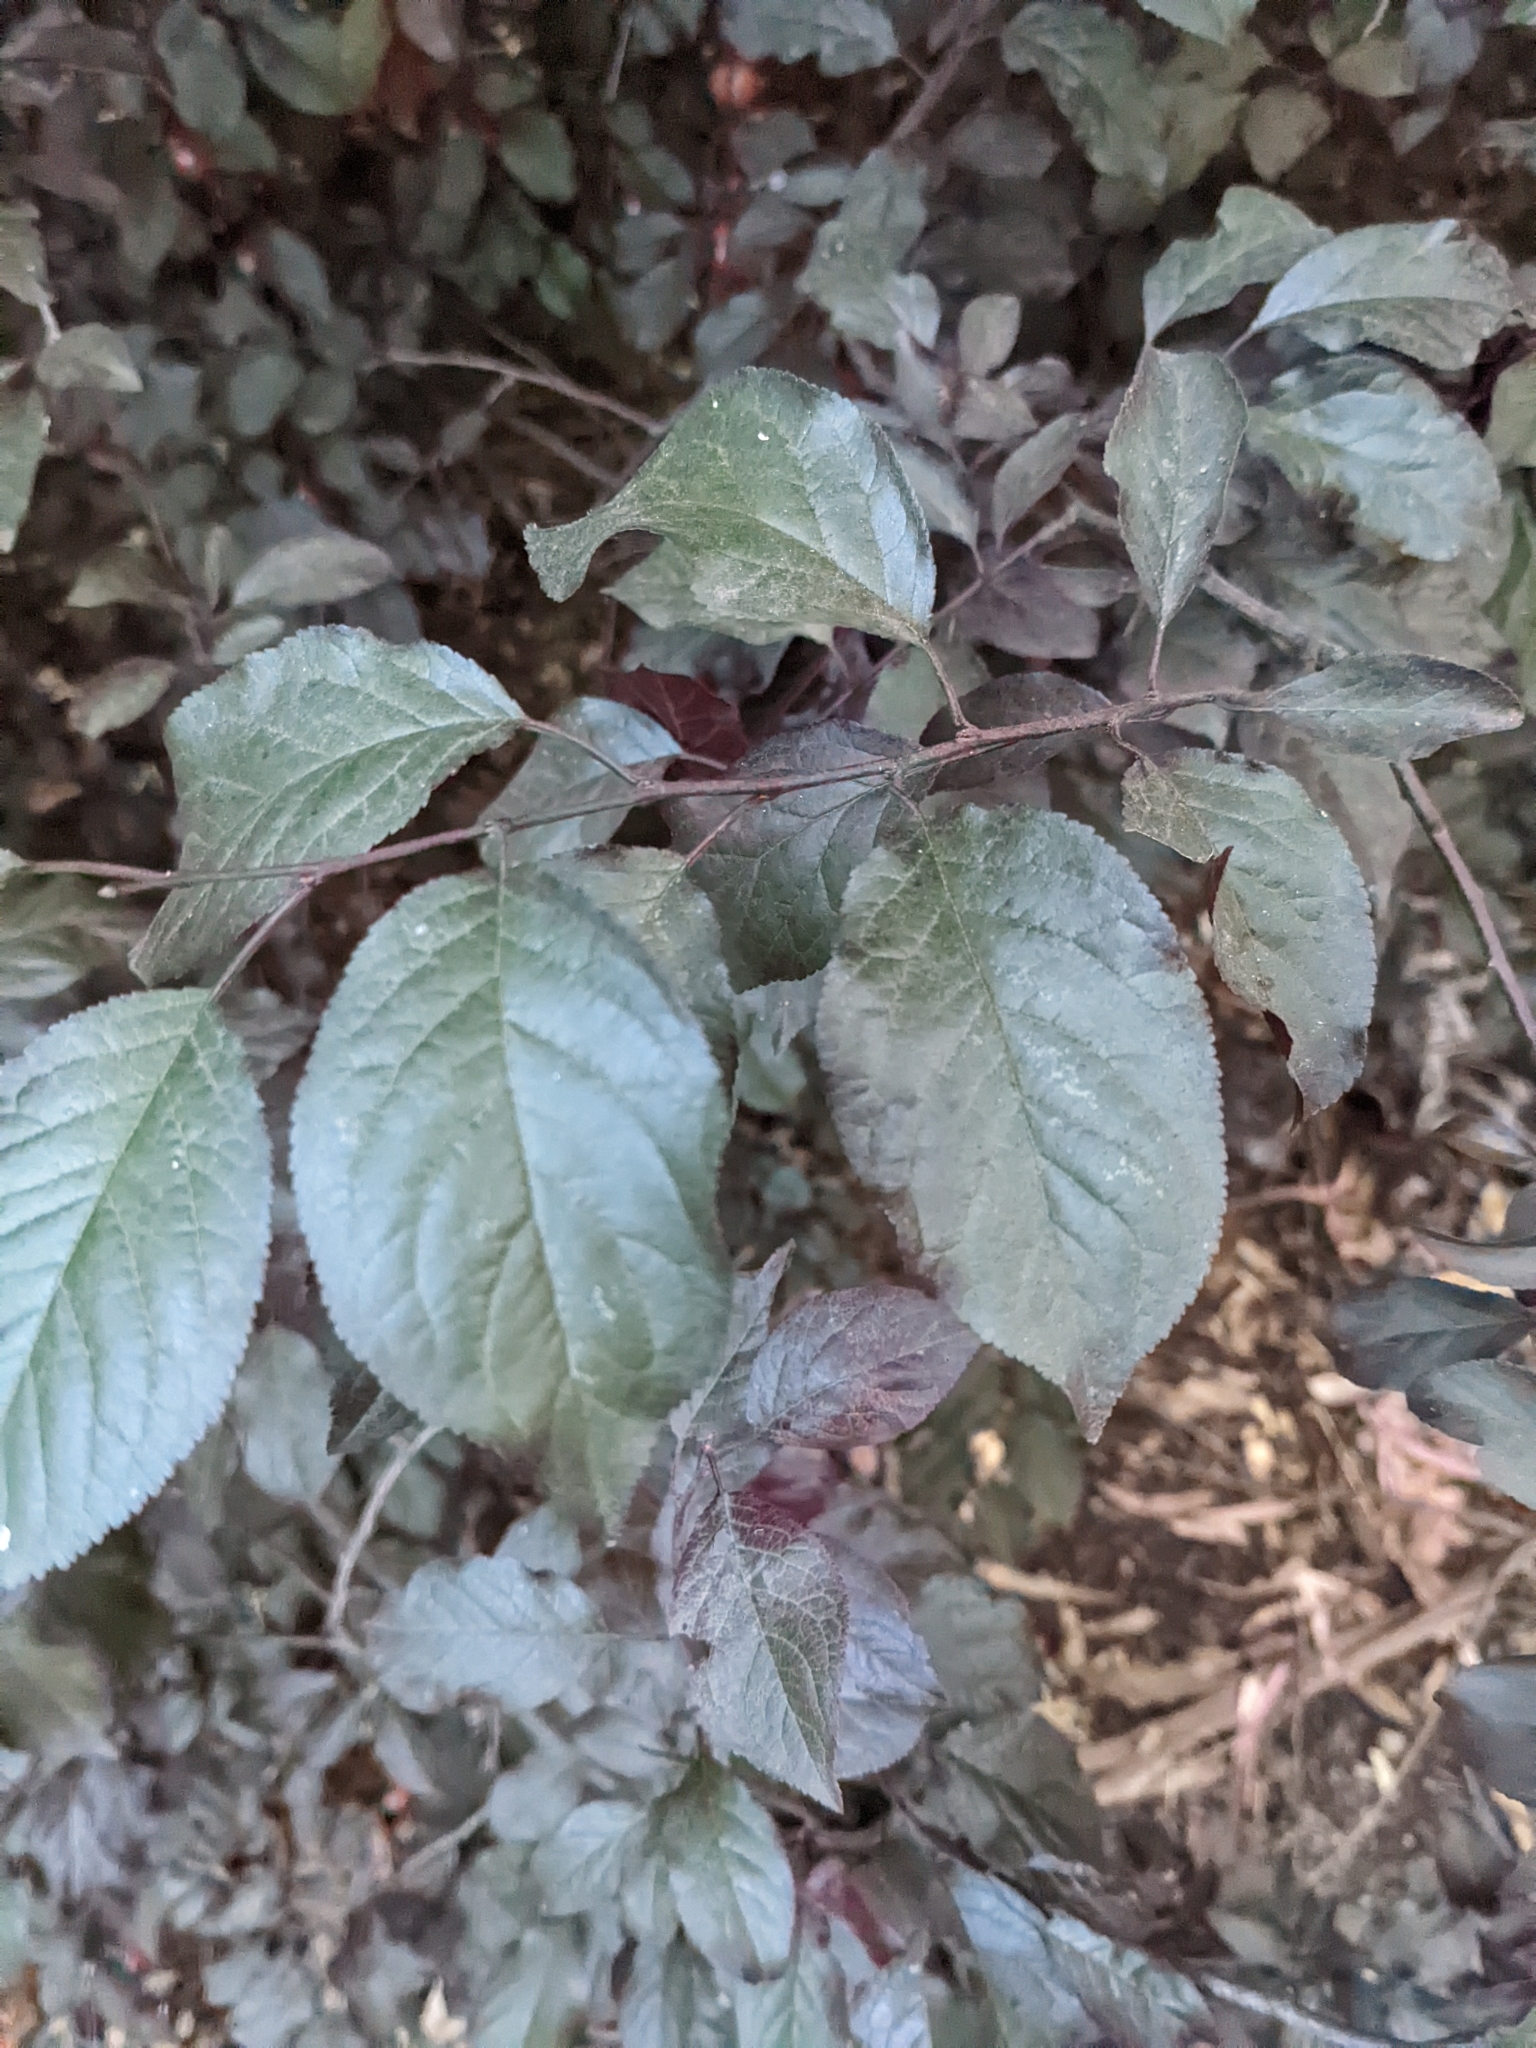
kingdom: Plantae
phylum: Tracheophyta
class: Magnoliopsida
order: Rosales
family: Rosaceae
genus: Prunus
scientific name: Prunus cerasifera
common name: Cherry plum
